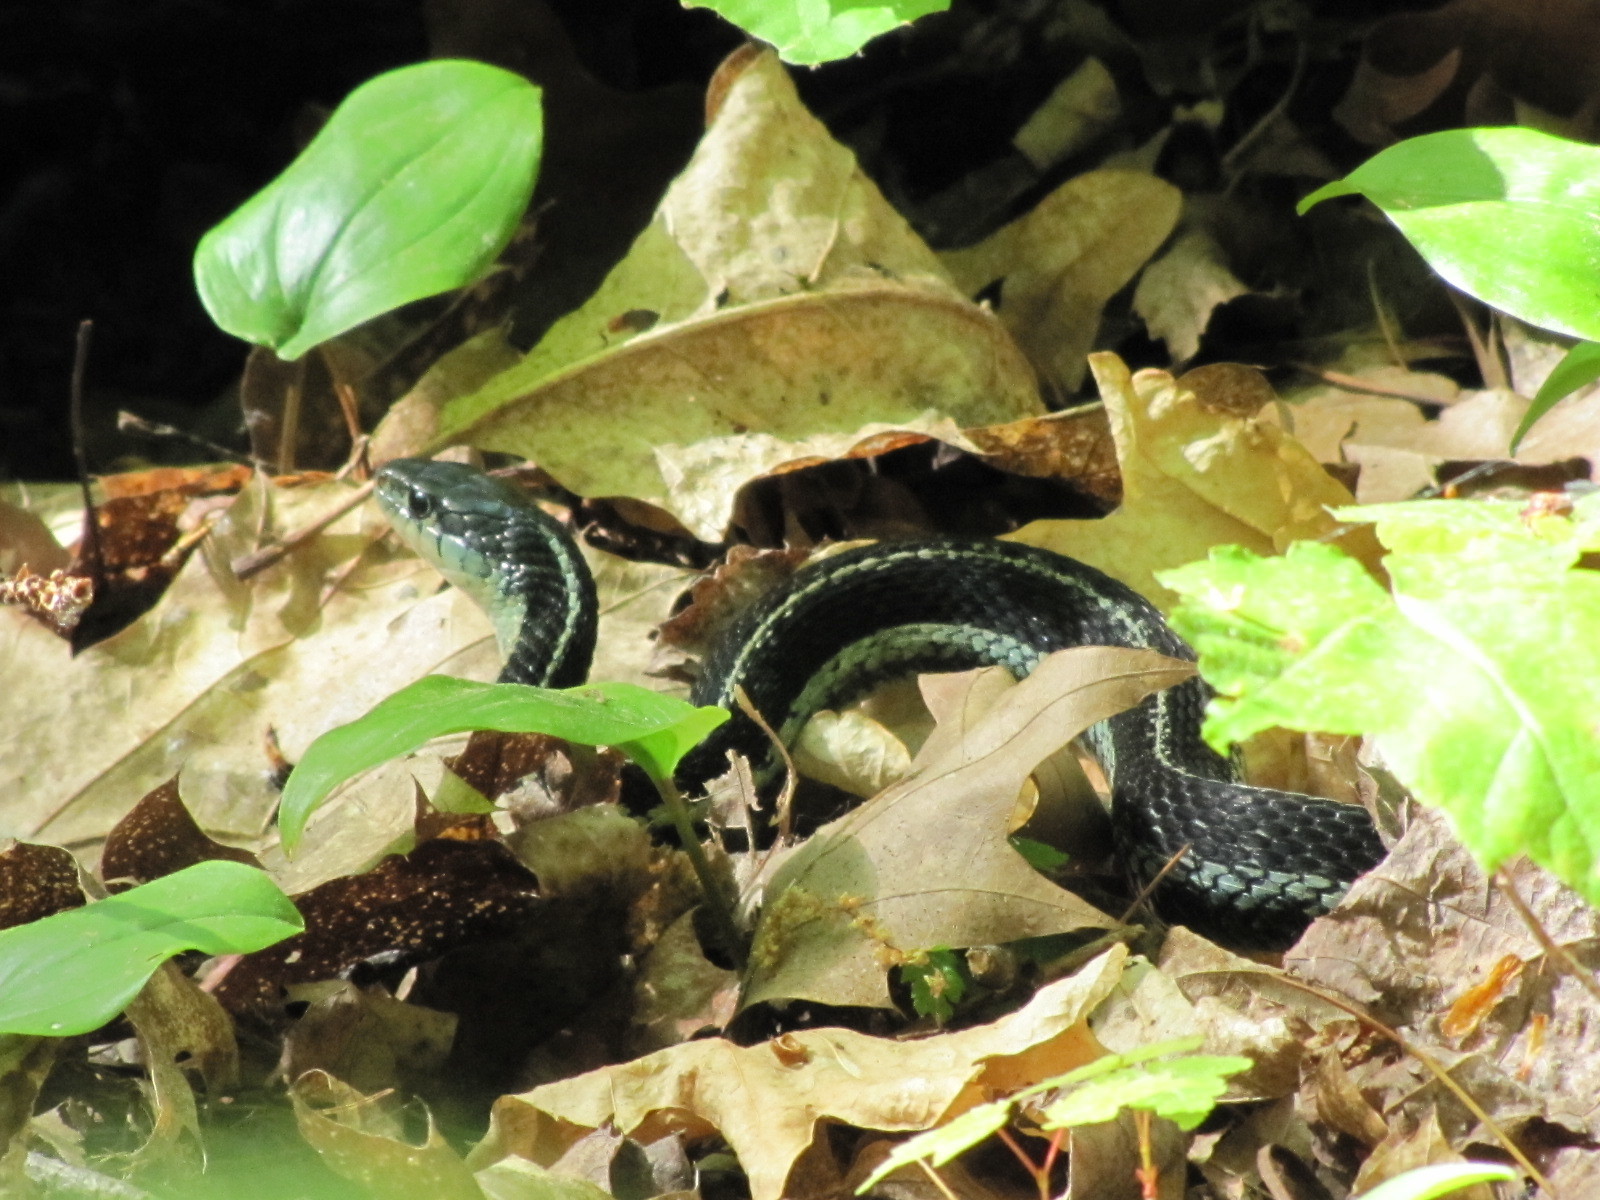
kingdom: Animalia
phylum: Chordata
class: Squamata
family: Colubridae
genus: Thamnophis
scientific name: Thamnophis sirtalis
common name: Common garter snake
